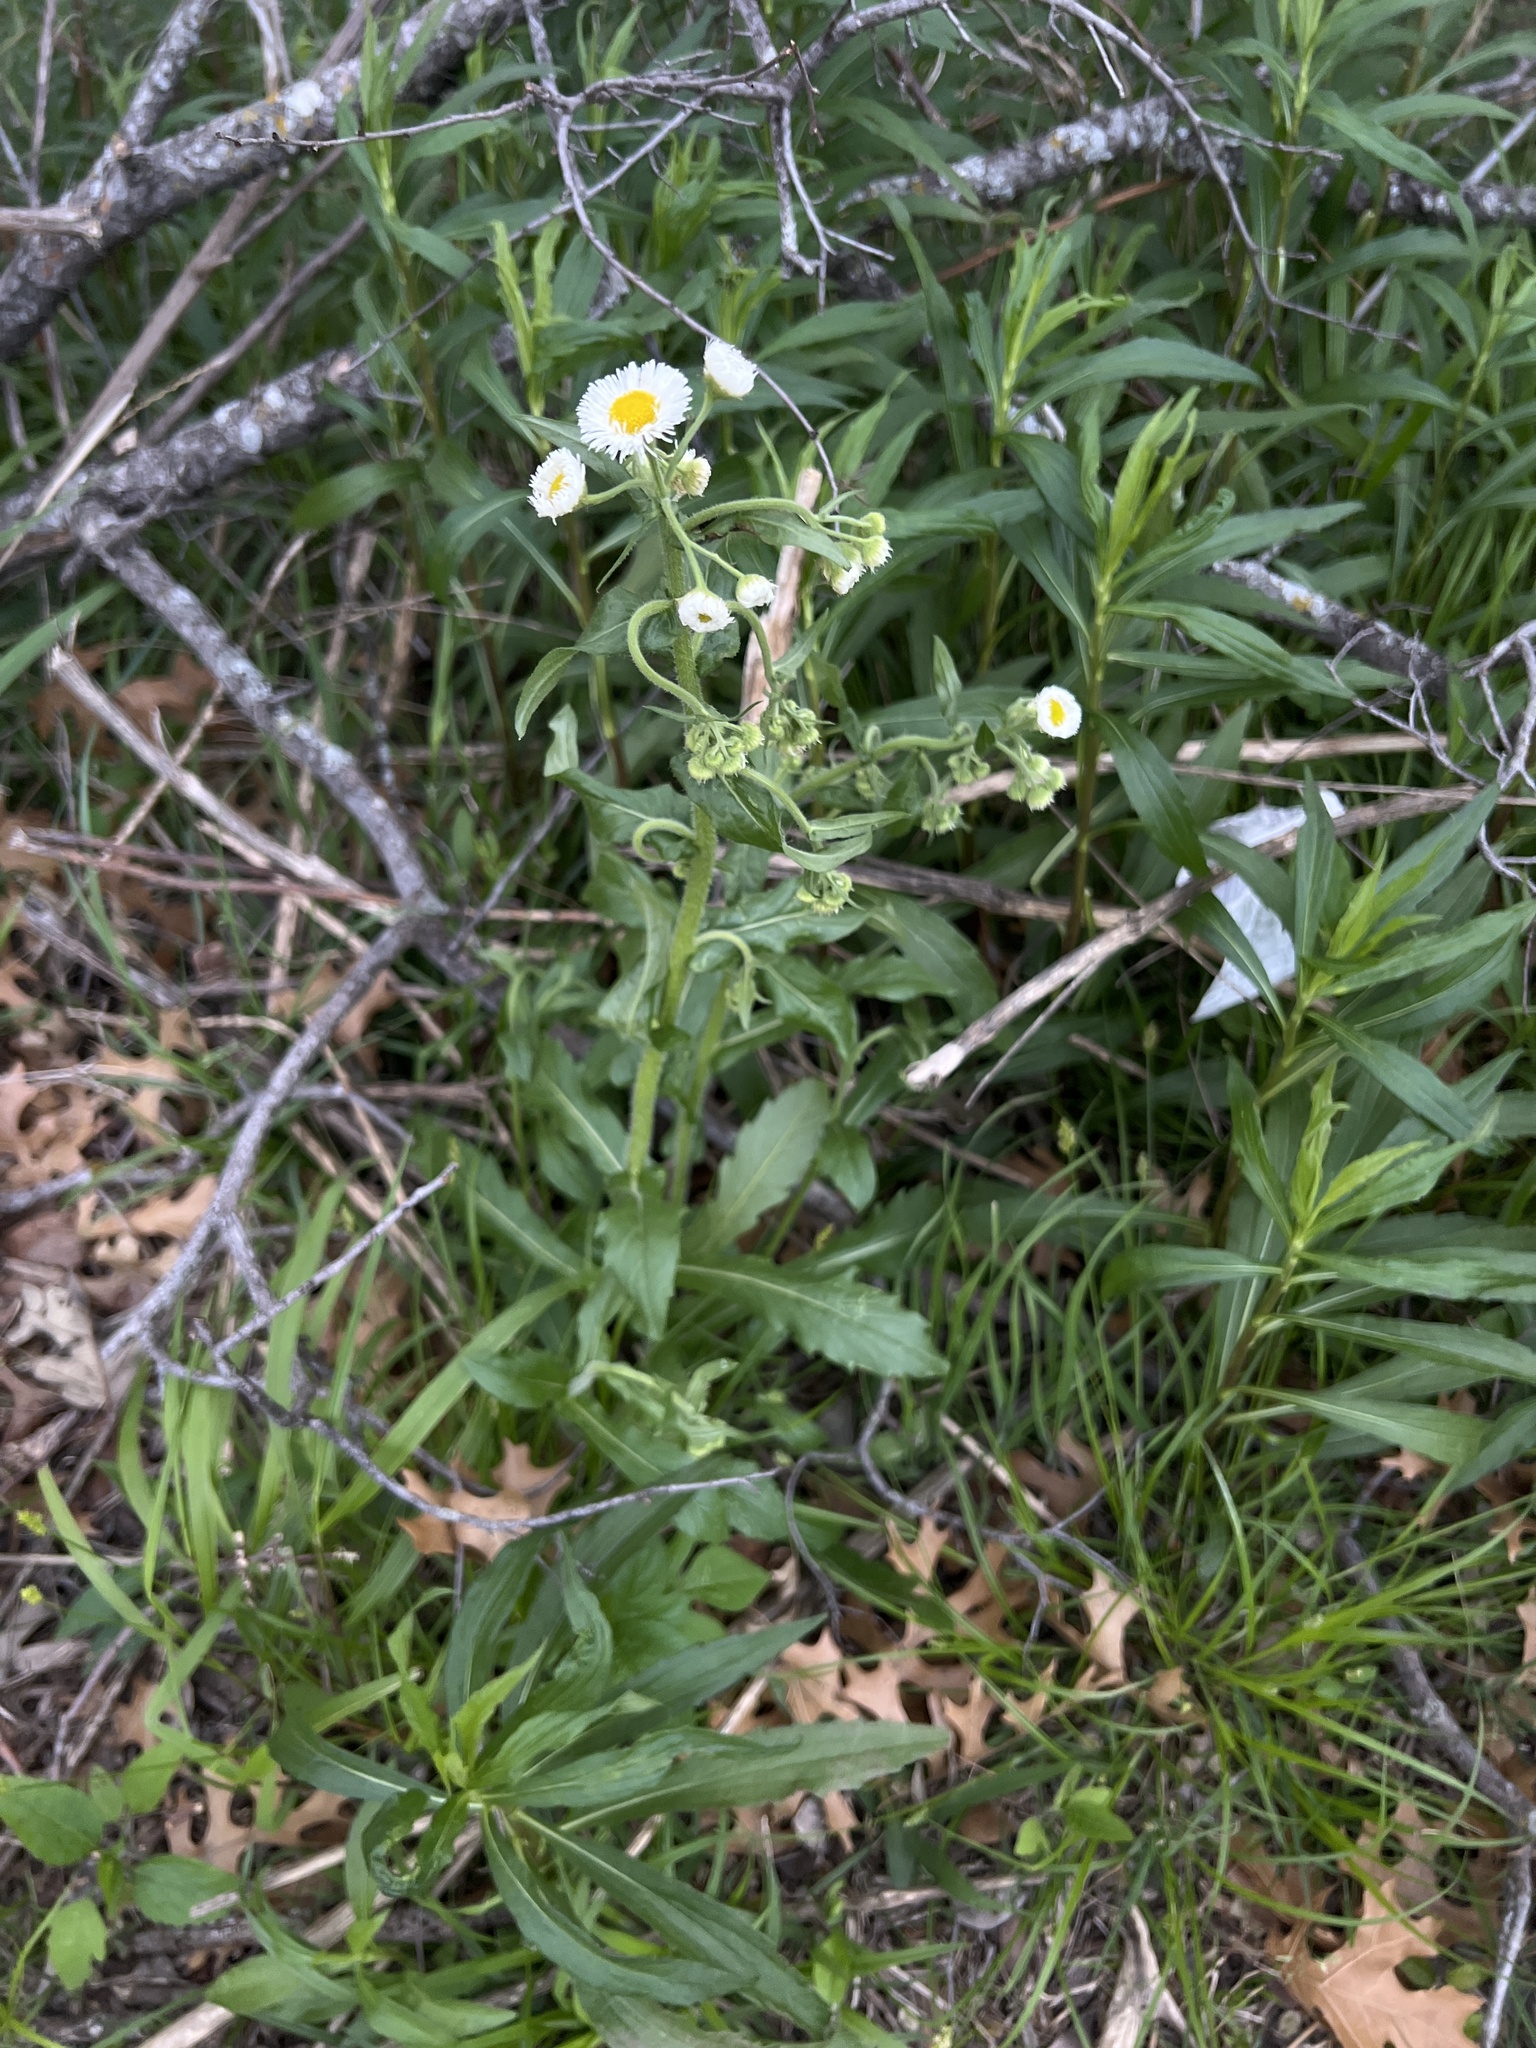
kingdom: Plantae
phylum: Tracheophyta
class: Magnoliopsida
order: Asterales
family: Asteraceae
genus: Erigeron
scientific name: Erigeron philadelphicus
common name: Robin's-plantain
